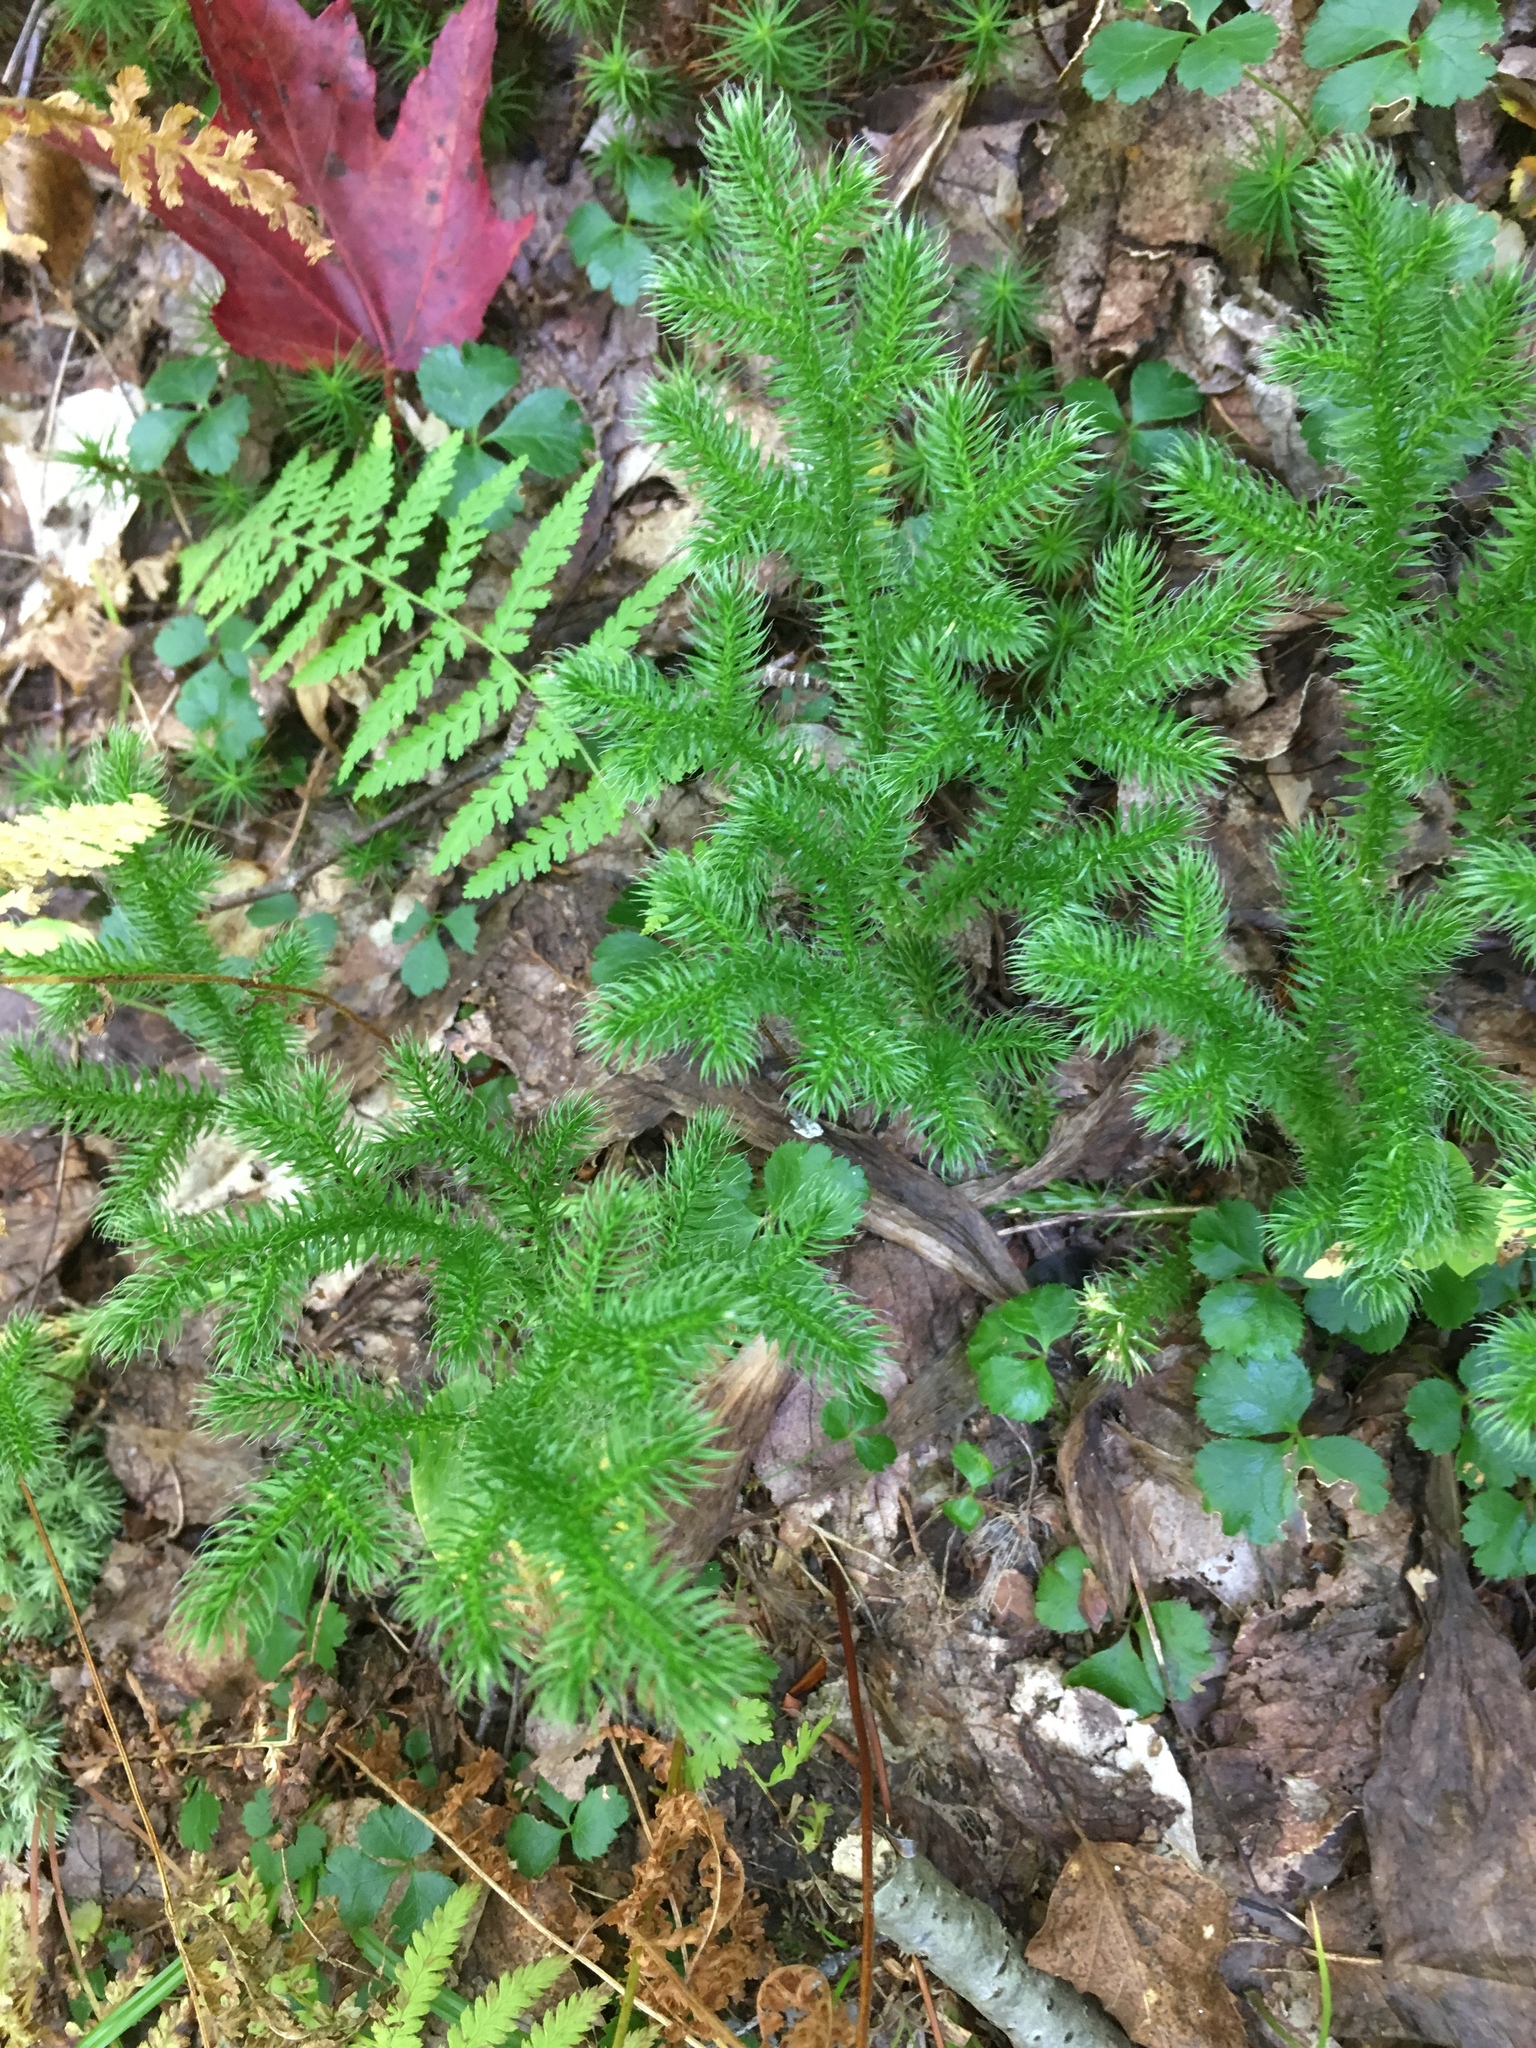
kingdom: Plantae
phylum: Tracheophyta
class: Lycopodiopsida
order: Lycopodiales
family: Lycopodiaceae
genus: Lycopodium
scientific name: Lycopodium clavatum
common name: Stag's-horn clubmoss
